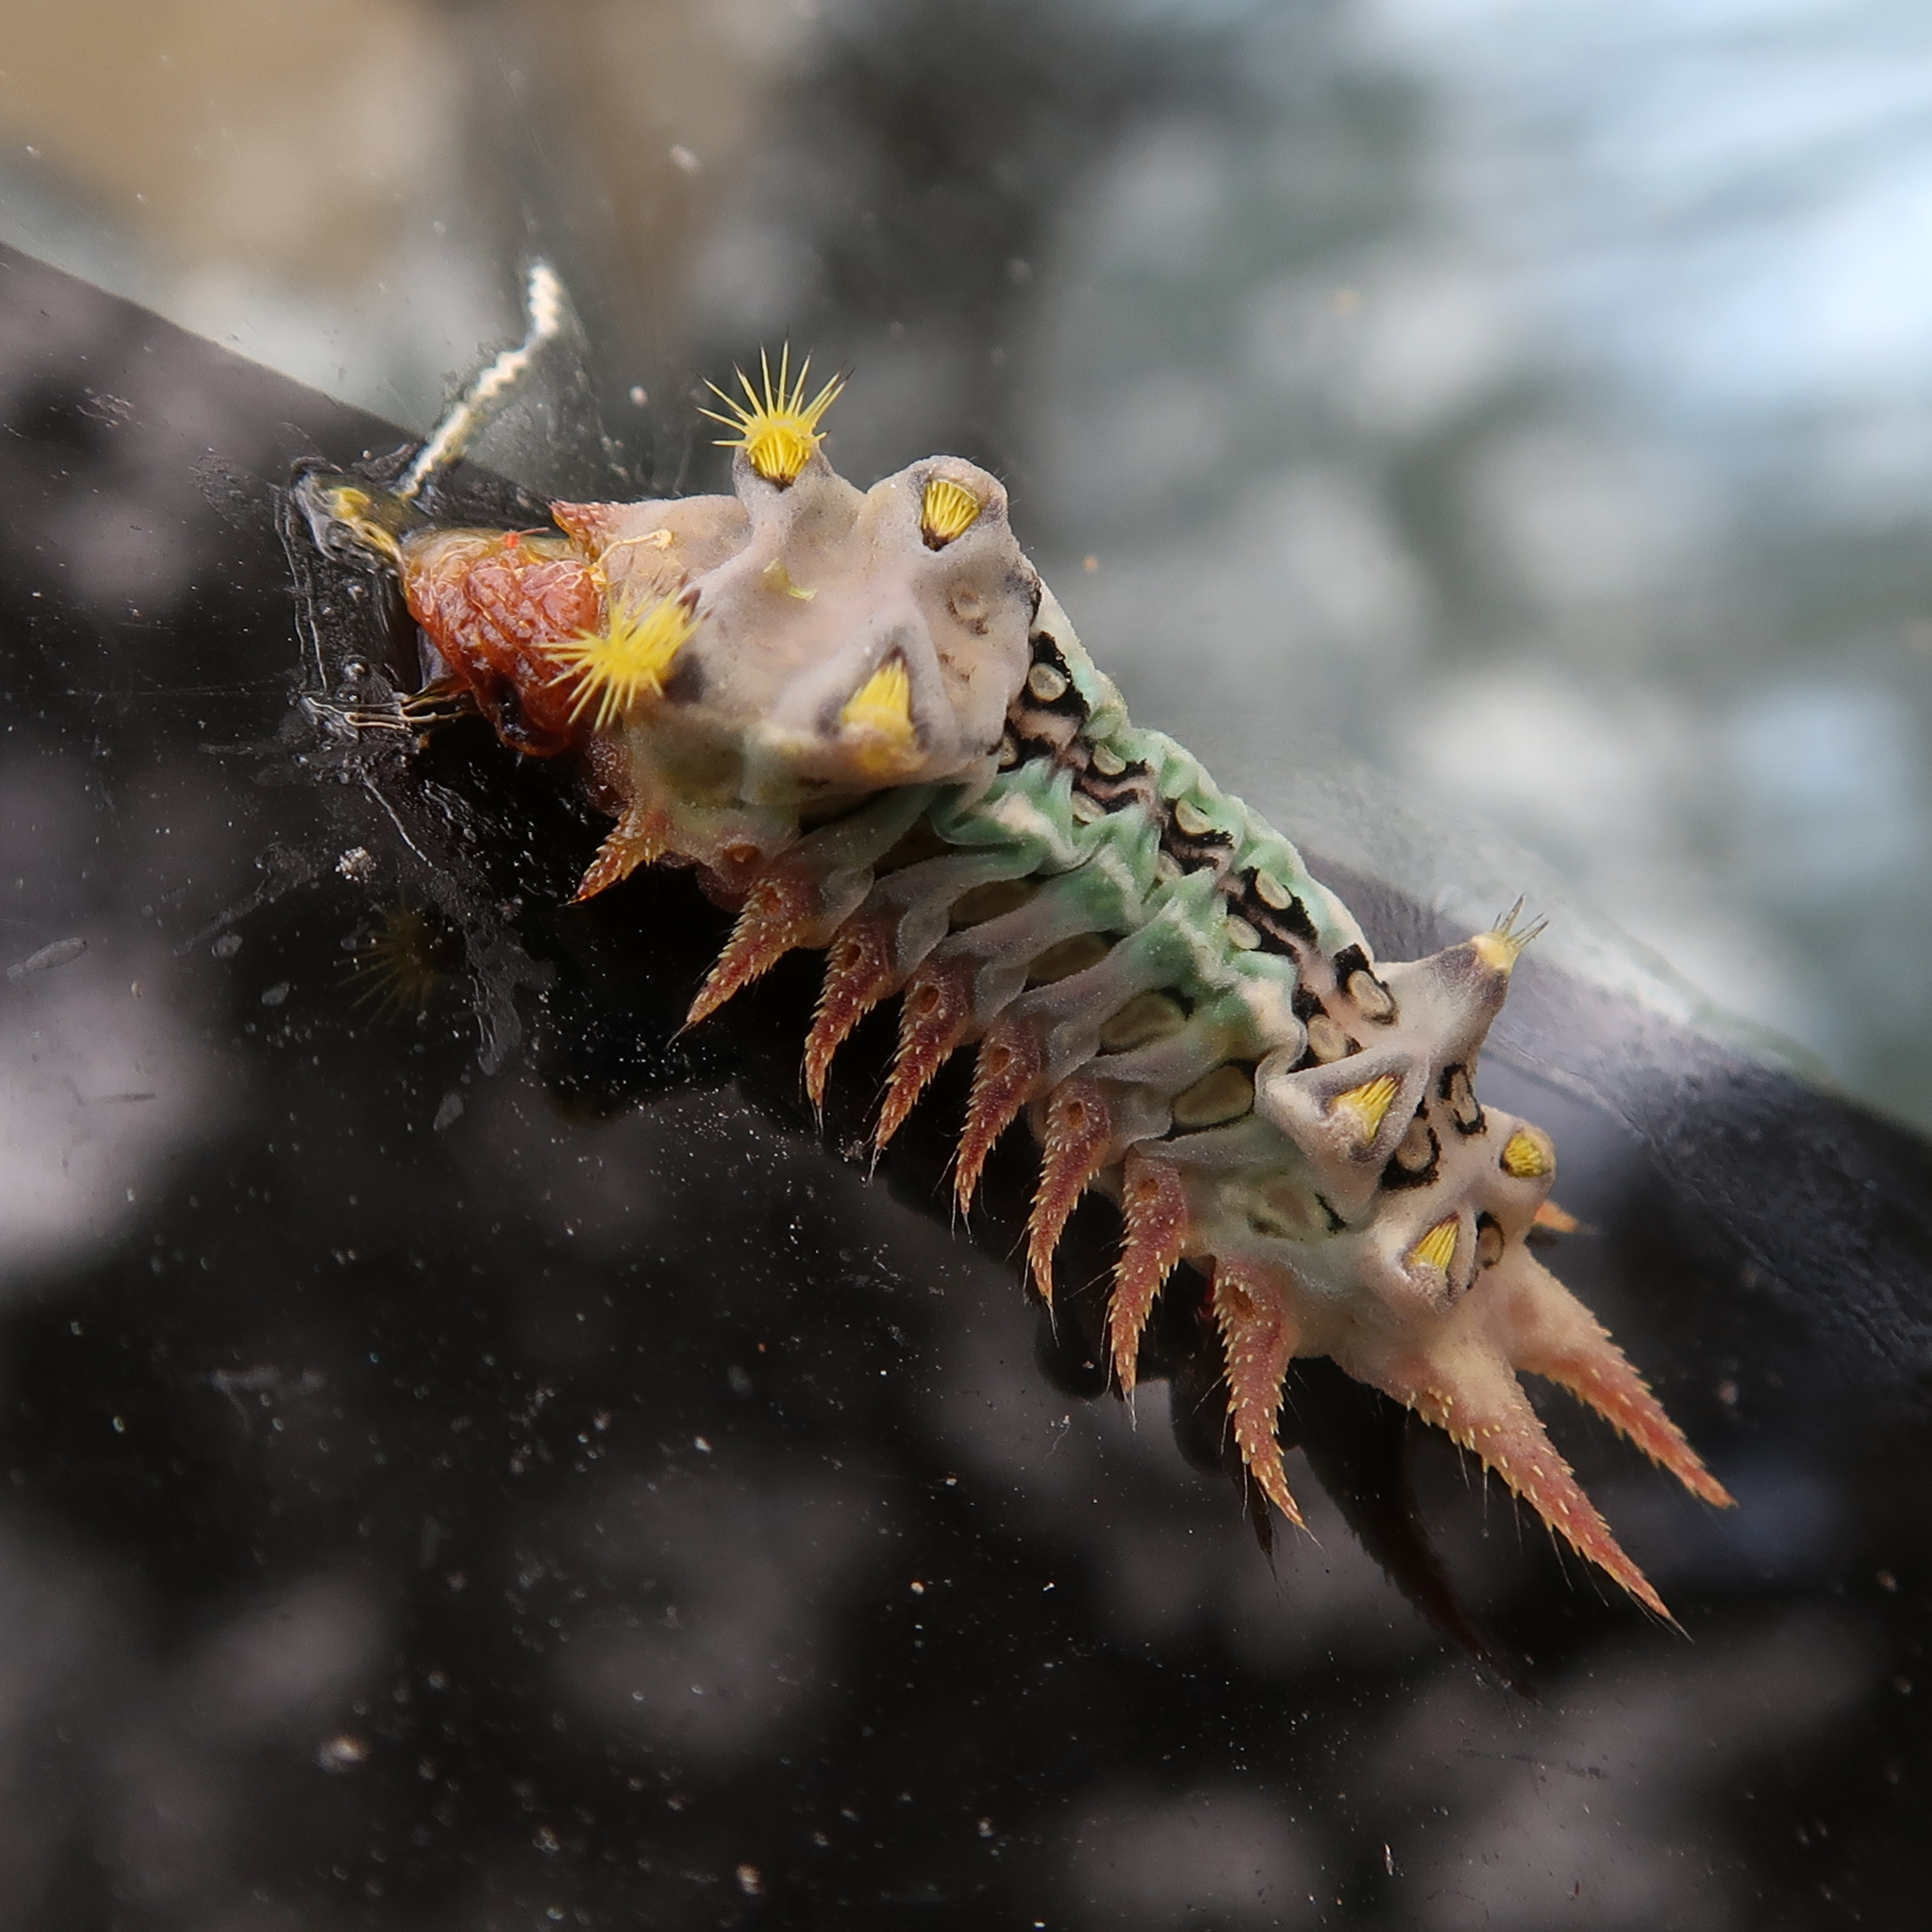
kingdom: Animalia
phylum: Arthropoda
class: Insecta
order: Lepidoptera
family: Limacodidae
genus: Doratifera
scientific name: Doratifera oxleyi
